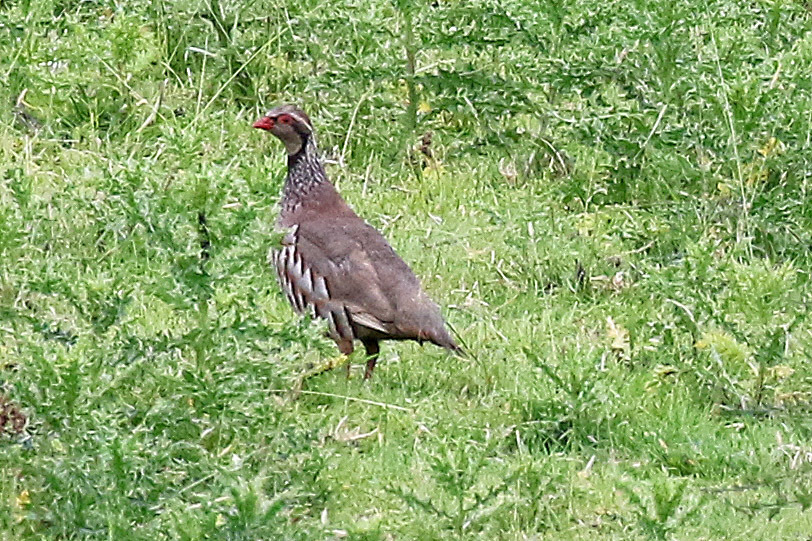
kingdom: Animalia
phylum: Chordata
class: Aves
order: Galliformes
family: Phasianidae
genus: Alectoris
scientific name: Alectoris rufa
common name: Red-legged partridge
